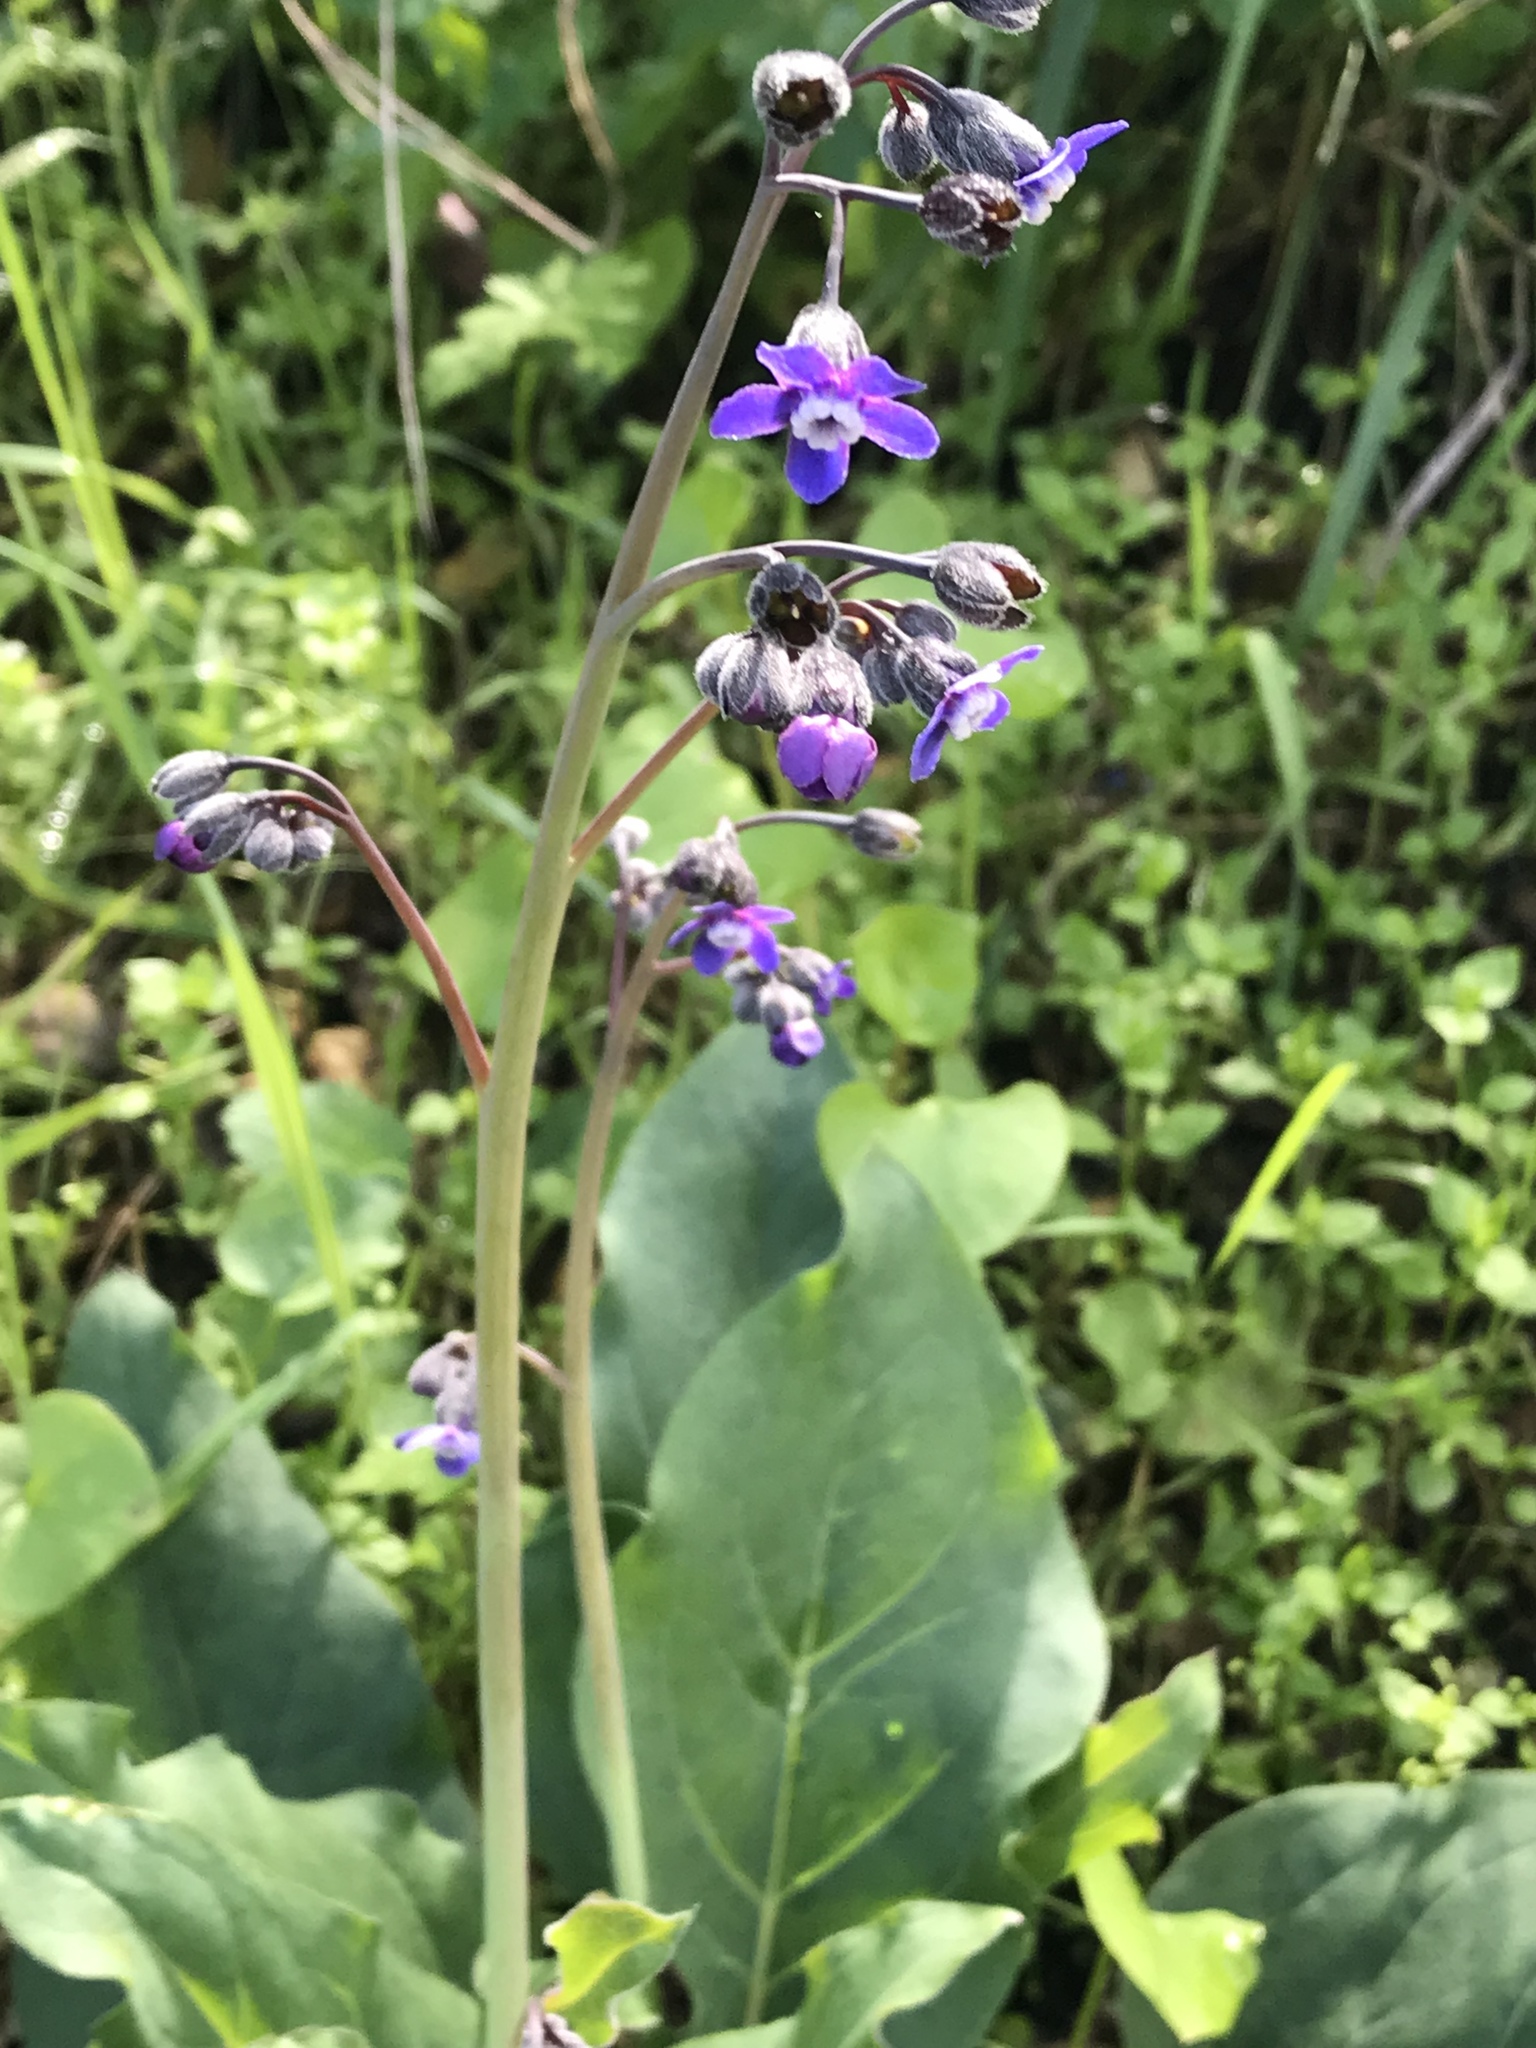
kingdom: Plantae
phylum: Tracheophyta
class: Magnoliopsida
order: Boraginales
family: Boraginaceae
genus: Adelinia
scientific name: Adelinia grande
